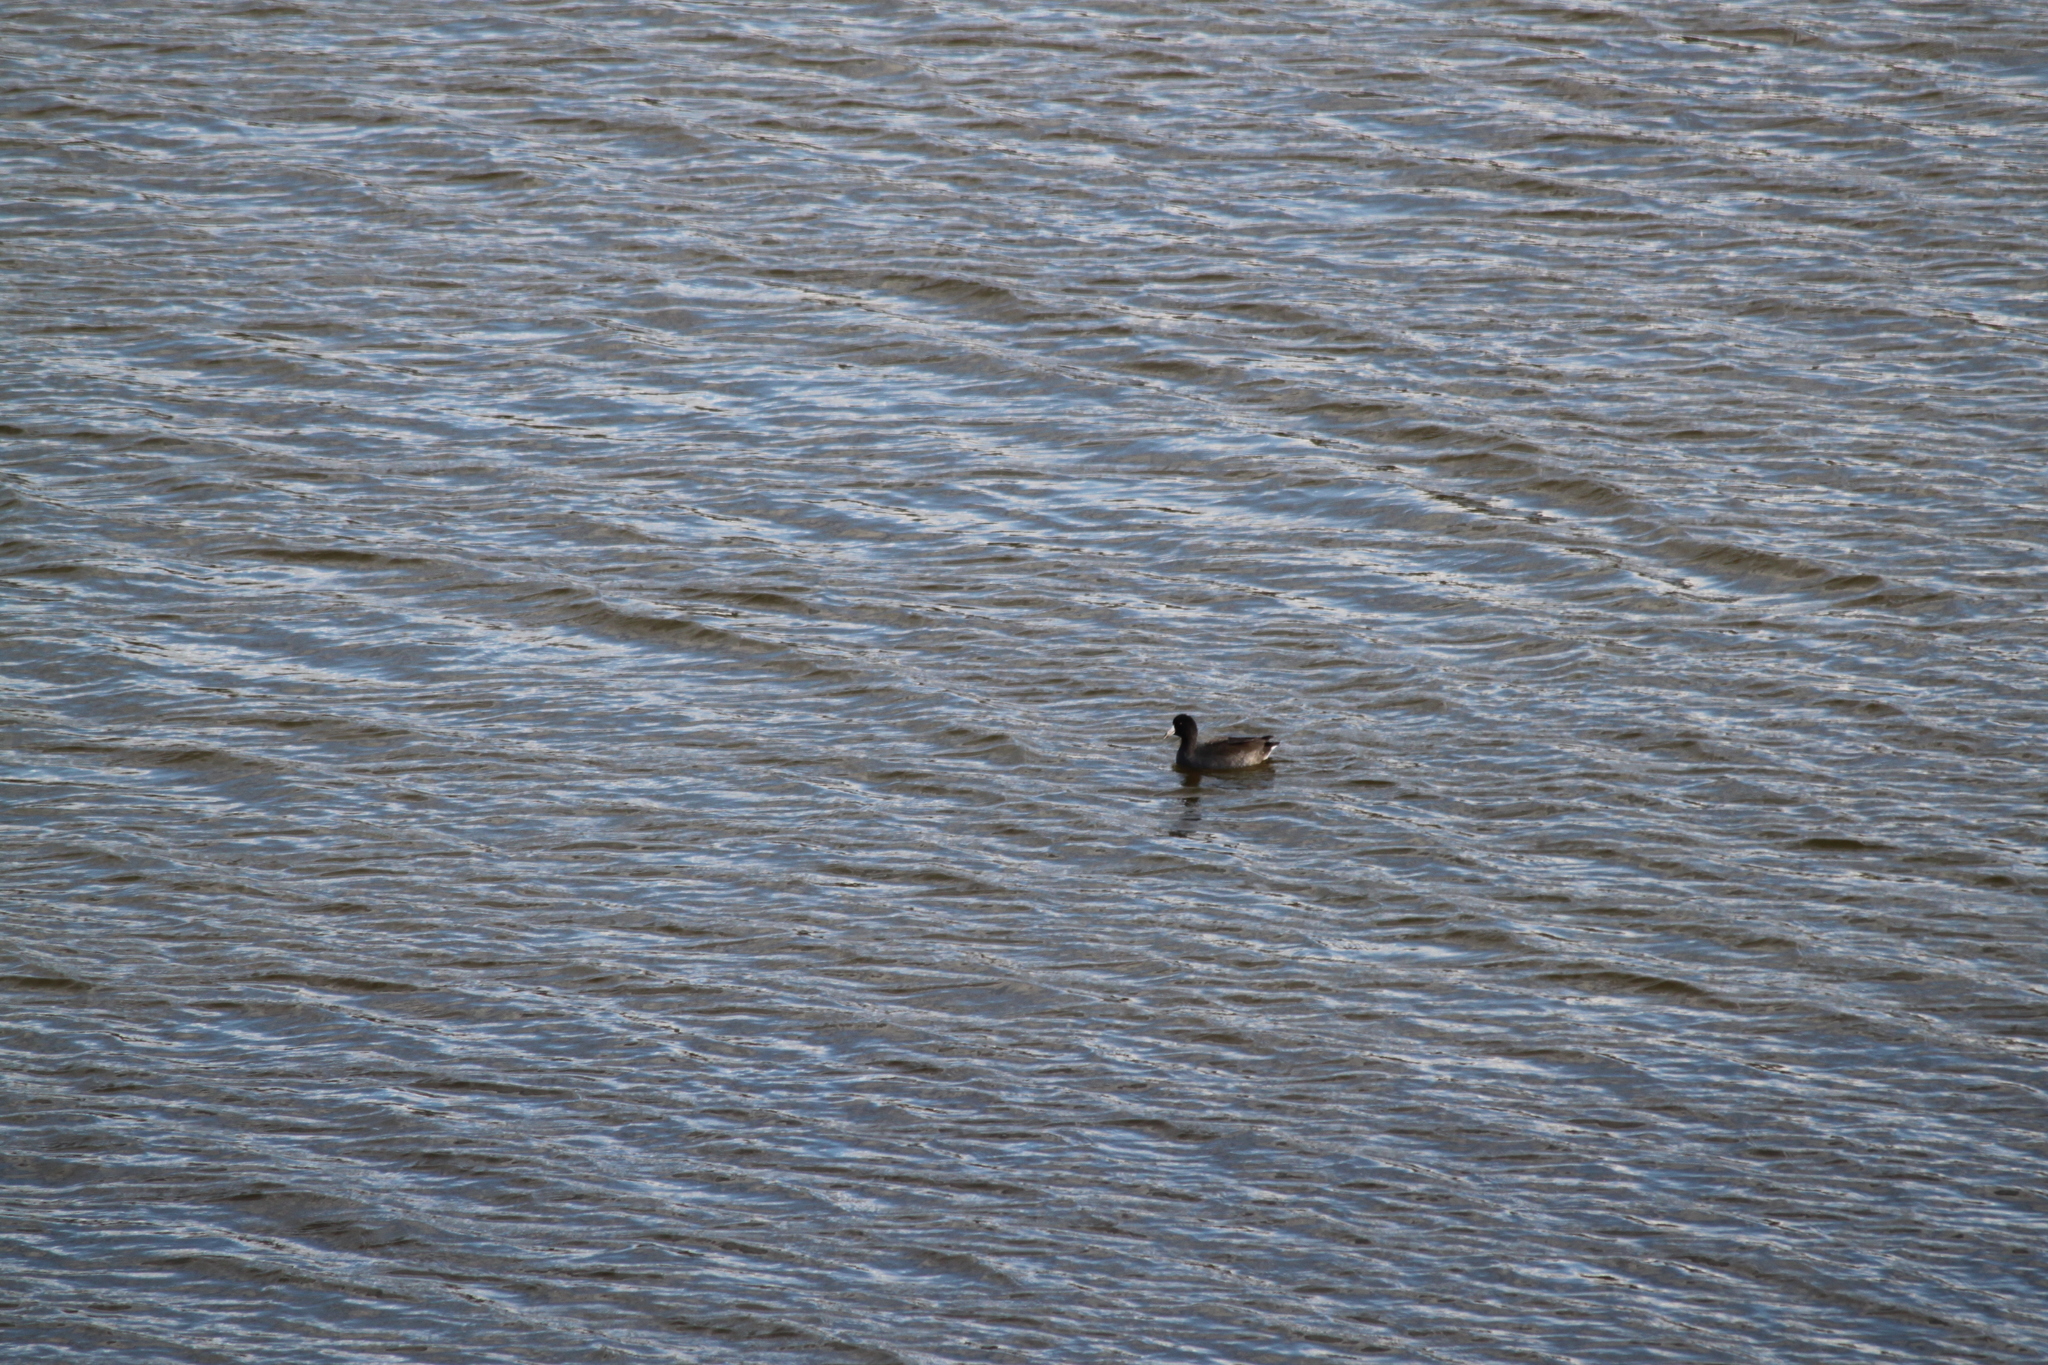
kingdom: Animalia
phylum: Chordata
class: Aves
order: Gruiformes
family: Rallidae
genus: Fulica
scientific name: Fulica americana
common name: American coot
